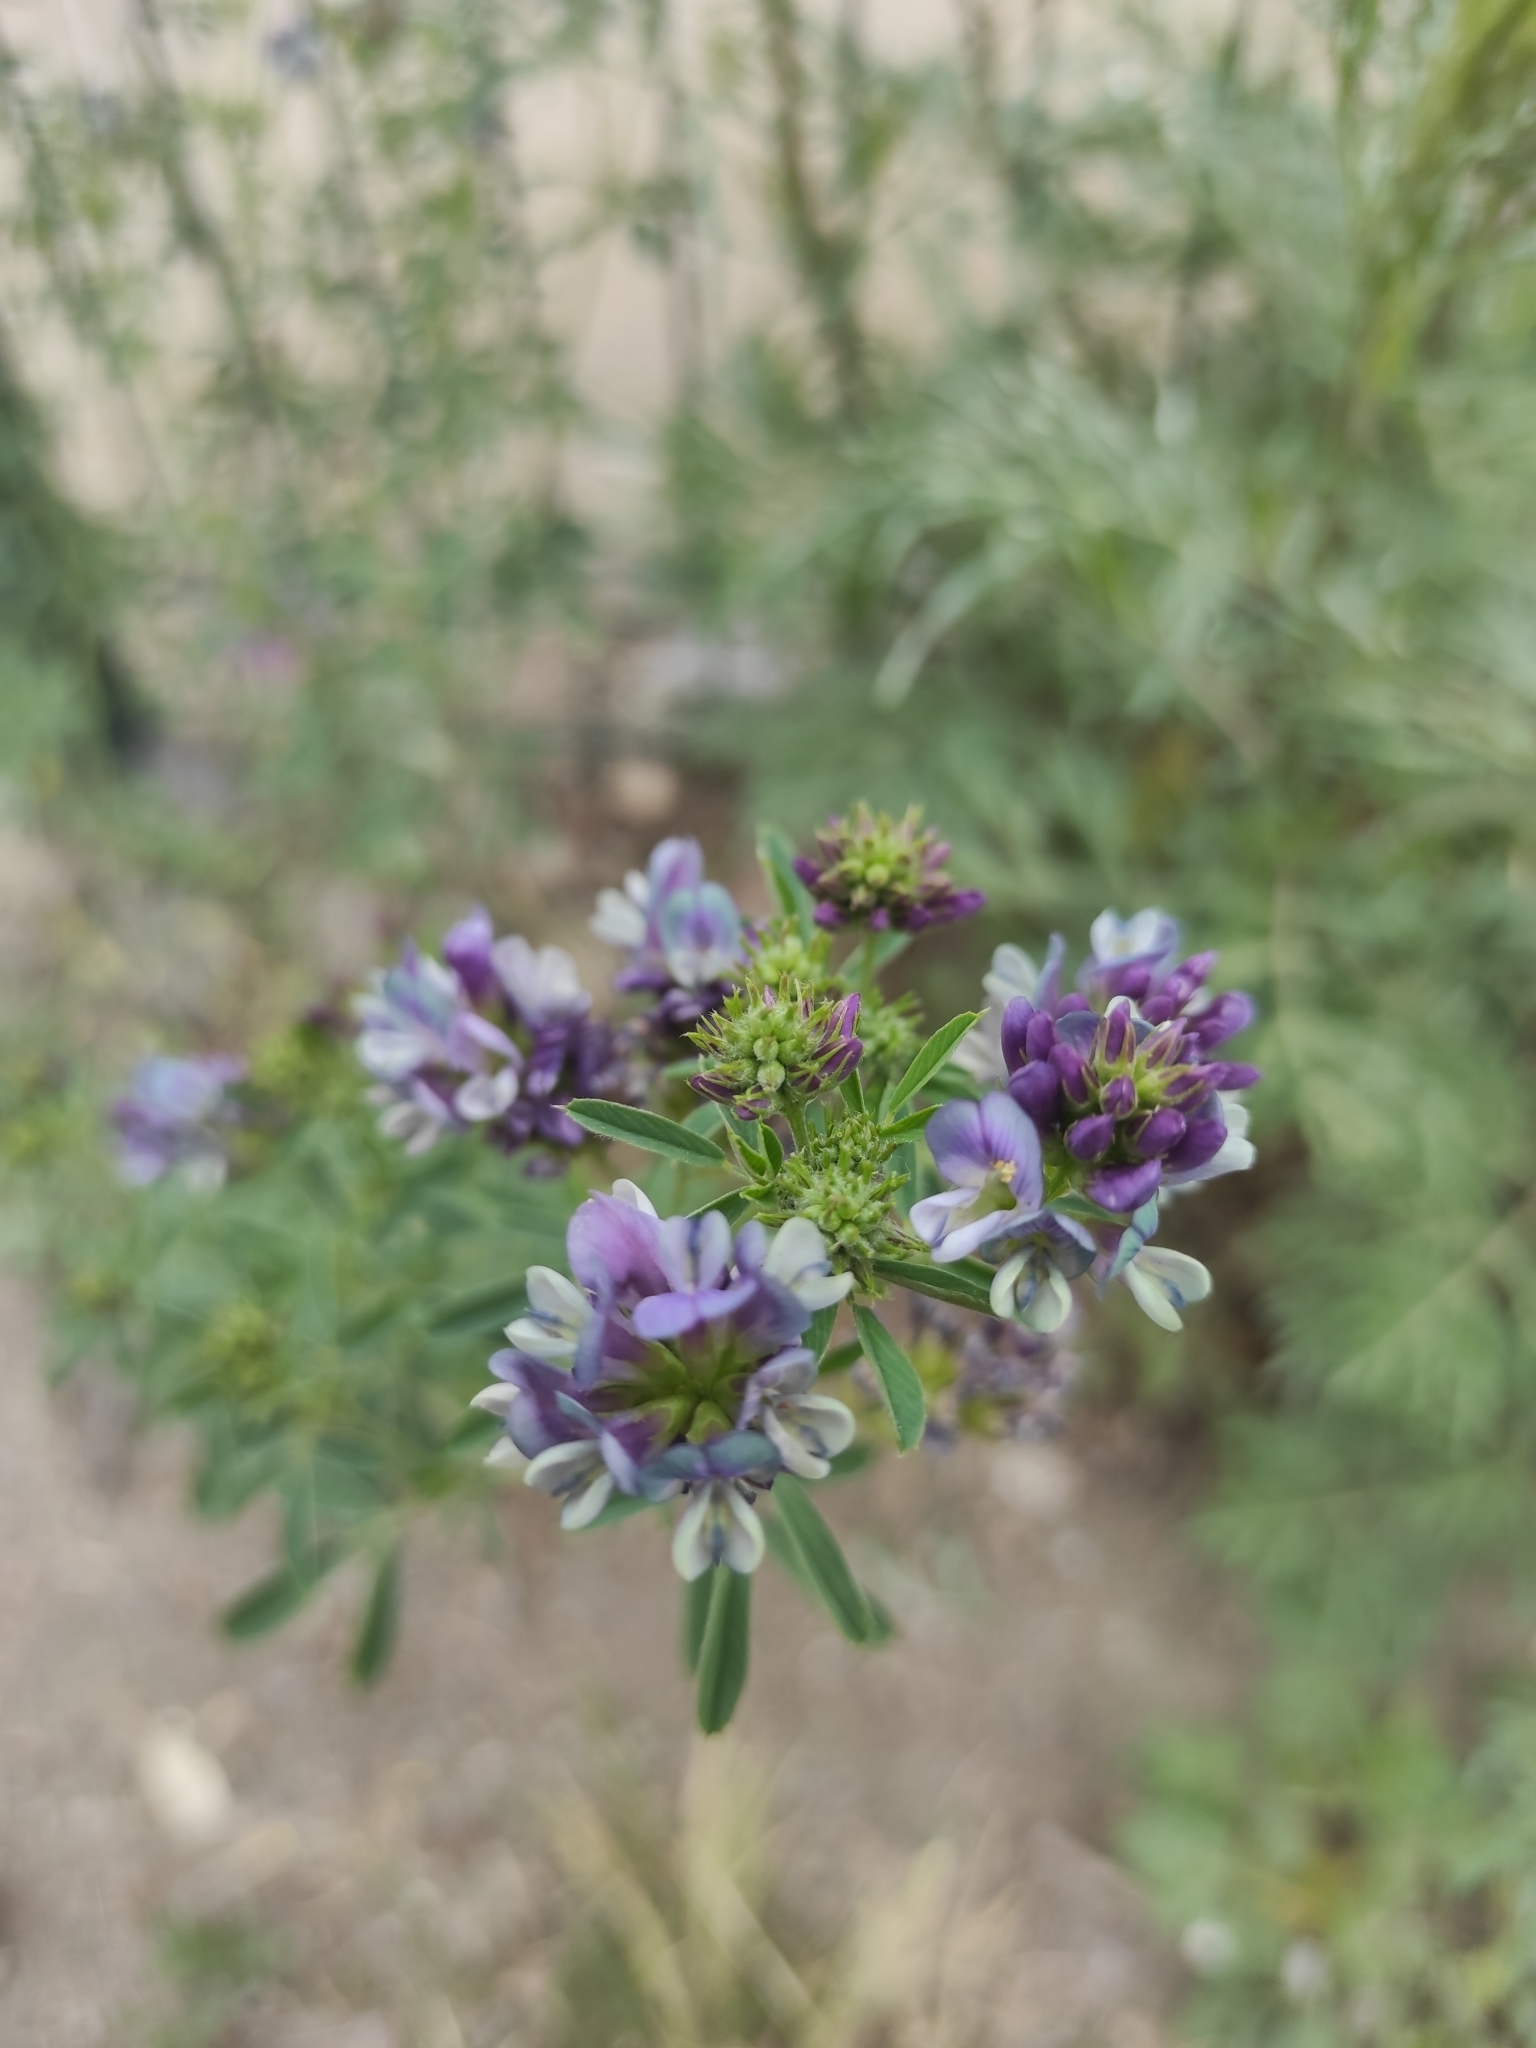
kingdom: Plantae
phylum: Tracheophyta
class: Magnoliopsida
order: Fabales
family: Fabaceae
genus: Medicago
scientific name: Medicago varia
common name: Sand lucerne
